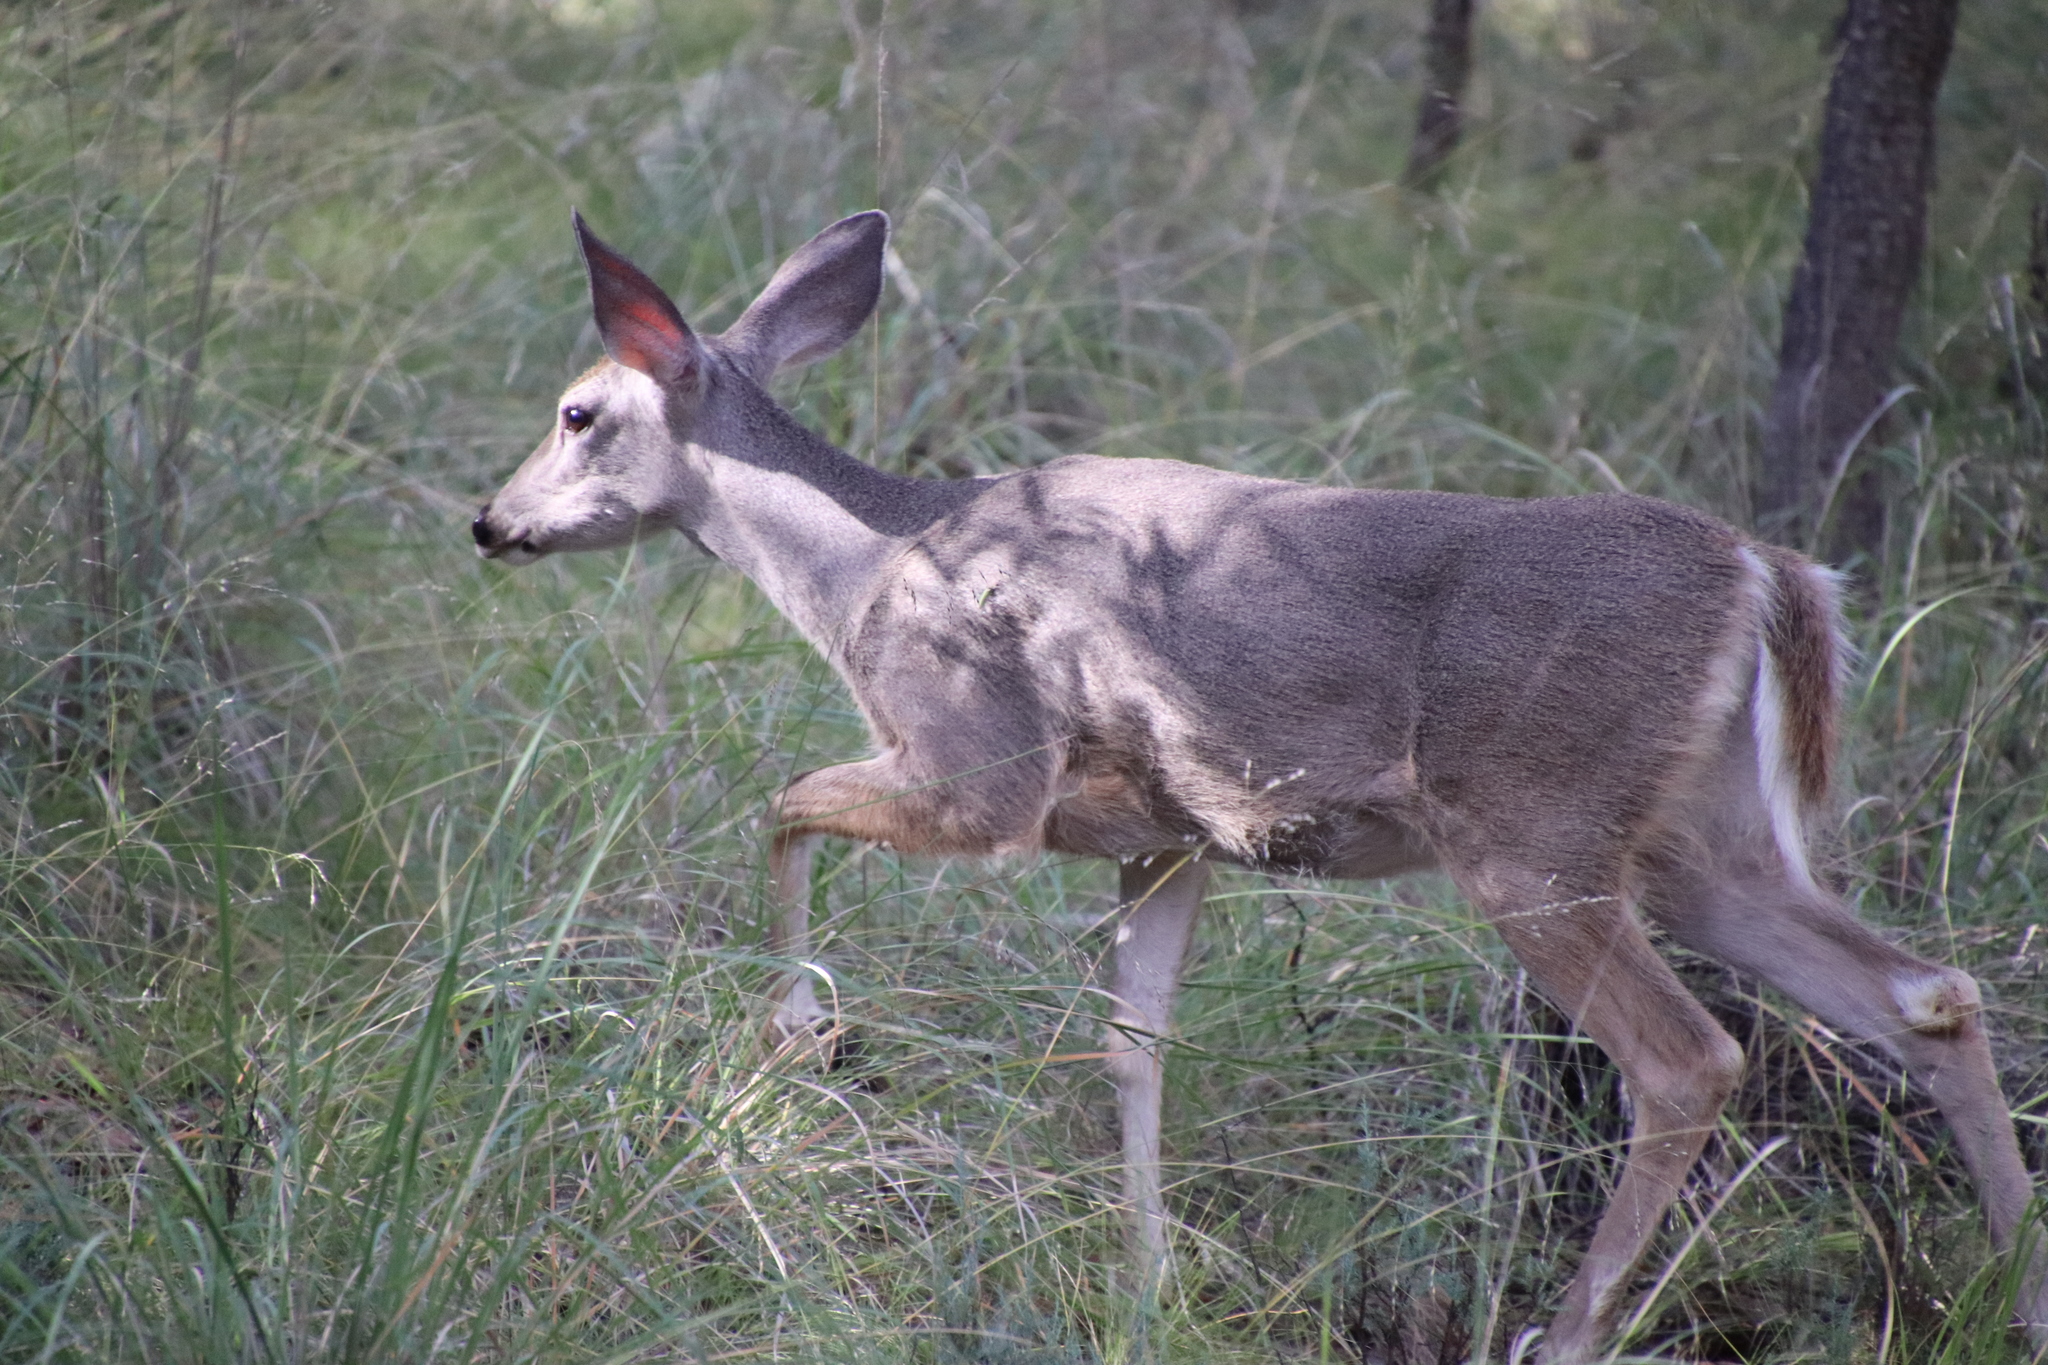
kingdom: Animalia
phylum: Chordata
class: Mammalia
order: Artiodactyla
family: Cervidae
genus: Odocoileus
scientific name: Odocoileus virginianus
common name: White-tailed deer
